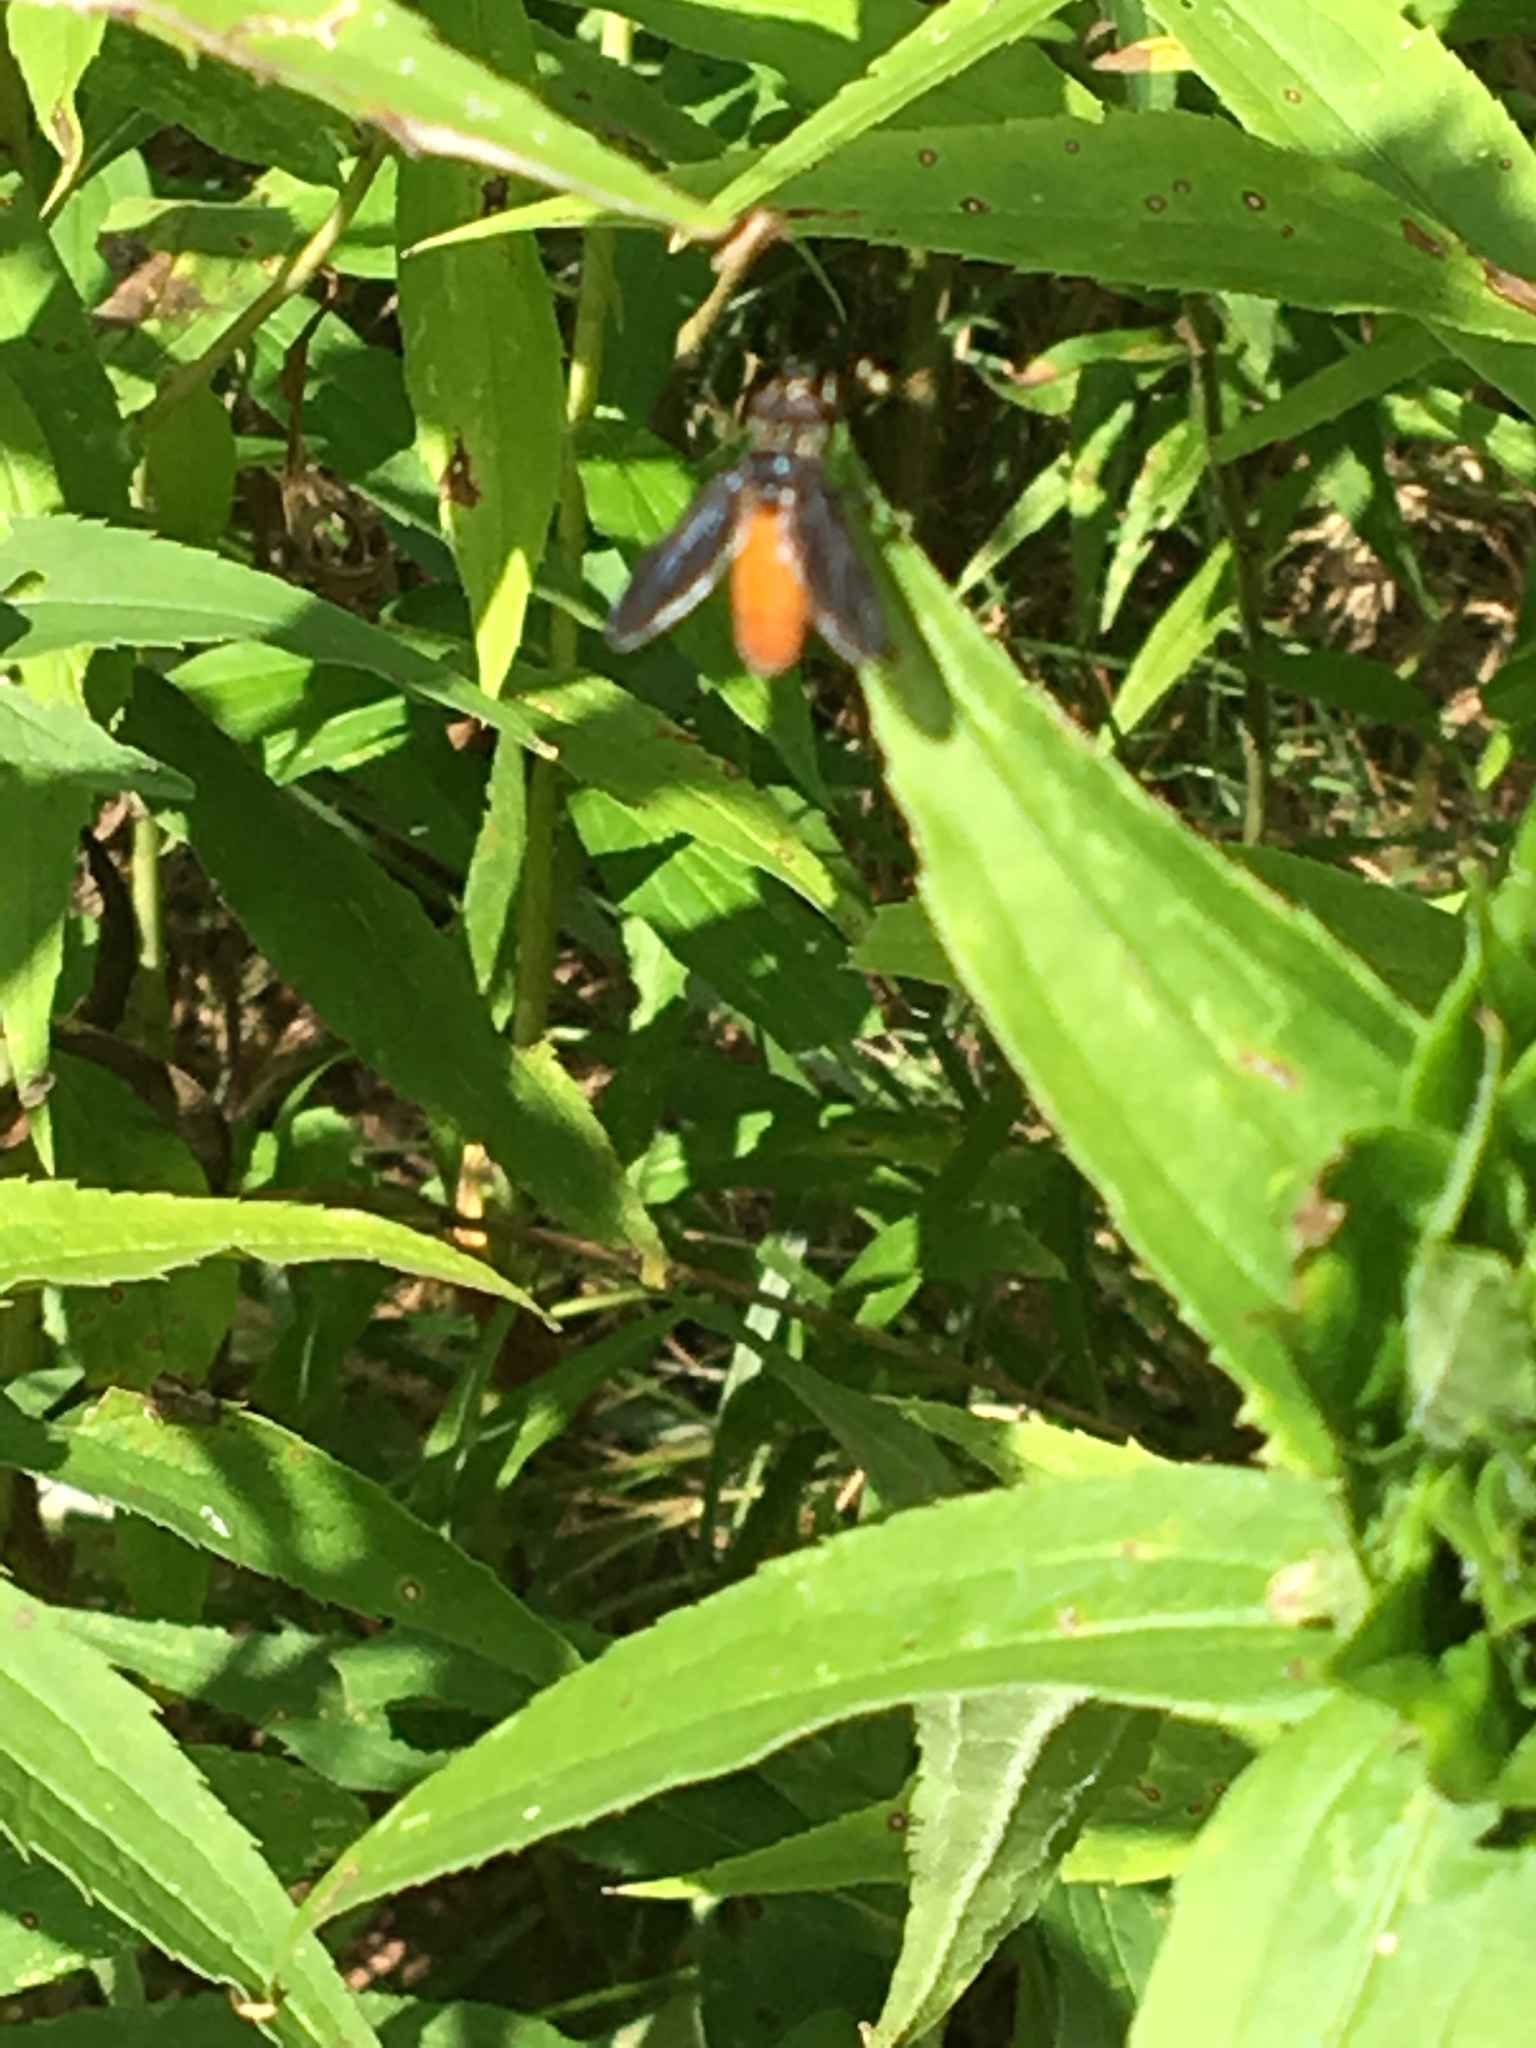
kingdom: Animalia
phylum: Arthropoda
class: Insecta
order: Diptera
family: Tachinidae
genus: Trichopoda
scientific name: Trichopoda pennipes
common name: Tachinid fly
